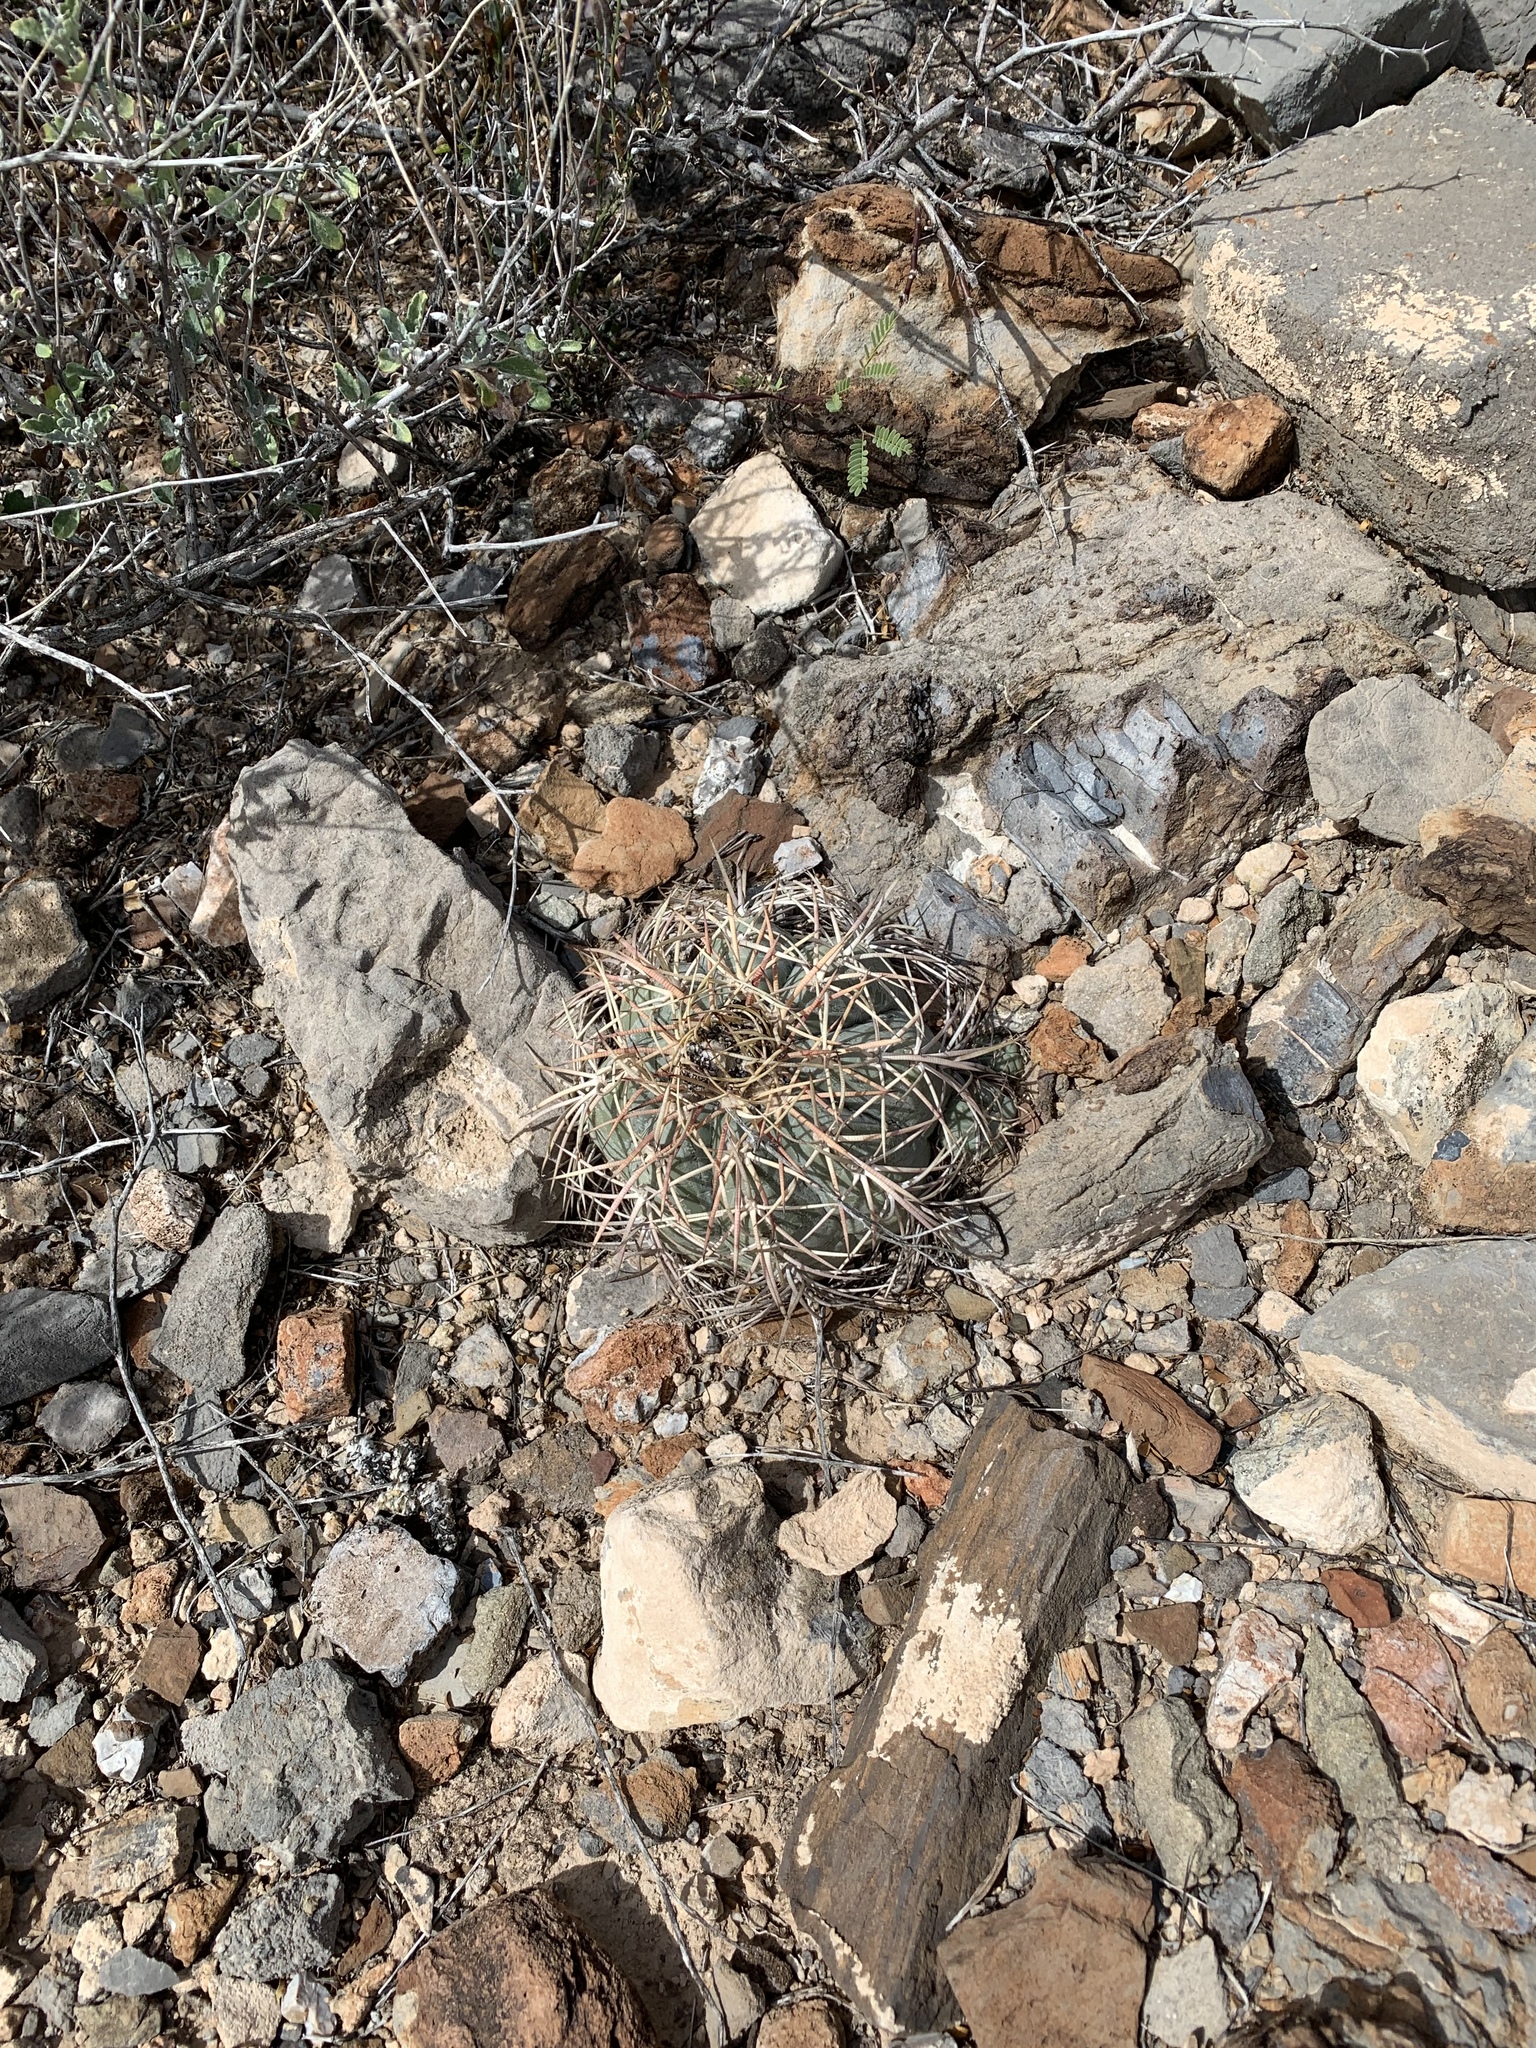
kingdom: Plantae
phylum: Tracheophyta
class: Magnoliopsida
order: Caryophyllales
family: Cactaceae
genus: Echinocactus
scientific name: Echinocactus horizonthalonius
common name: Devilshead
